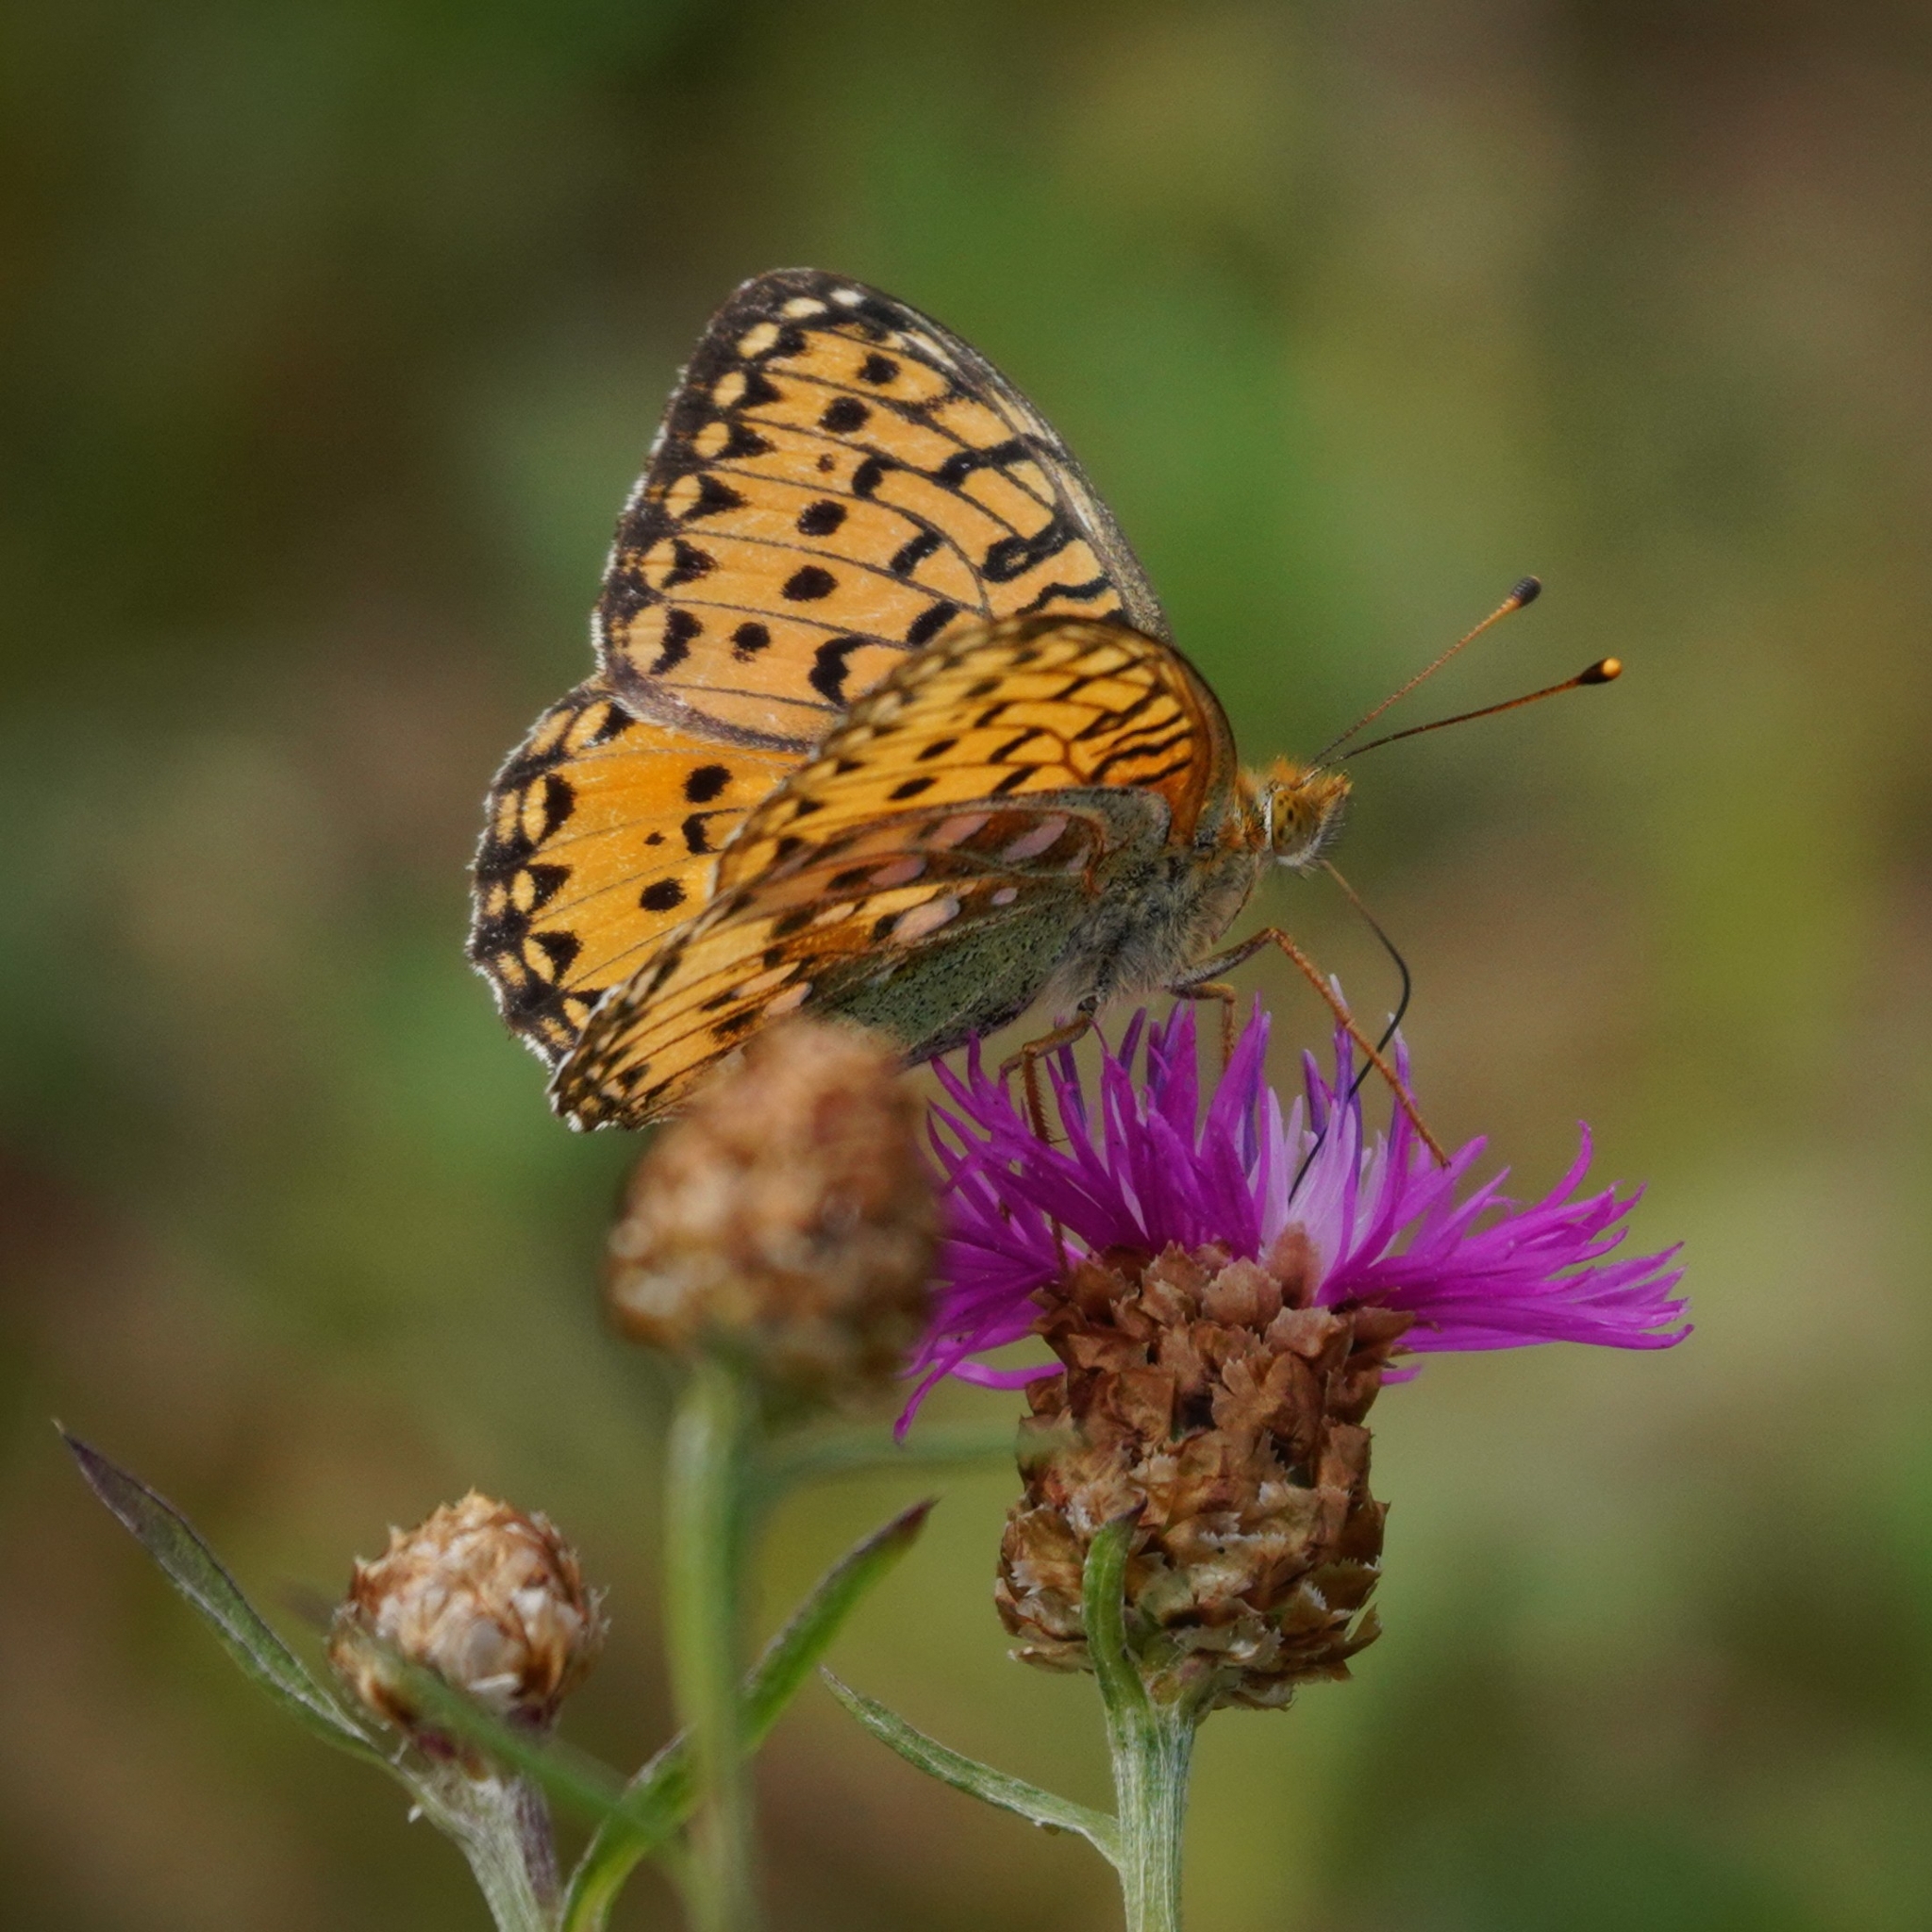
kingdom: Animalia
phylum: Arthropoda
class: Insecta
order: Lepidoptera
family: Nymphalidae
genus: Speyeria
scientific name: Speyeria aglaja
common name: Dark green fritillary
